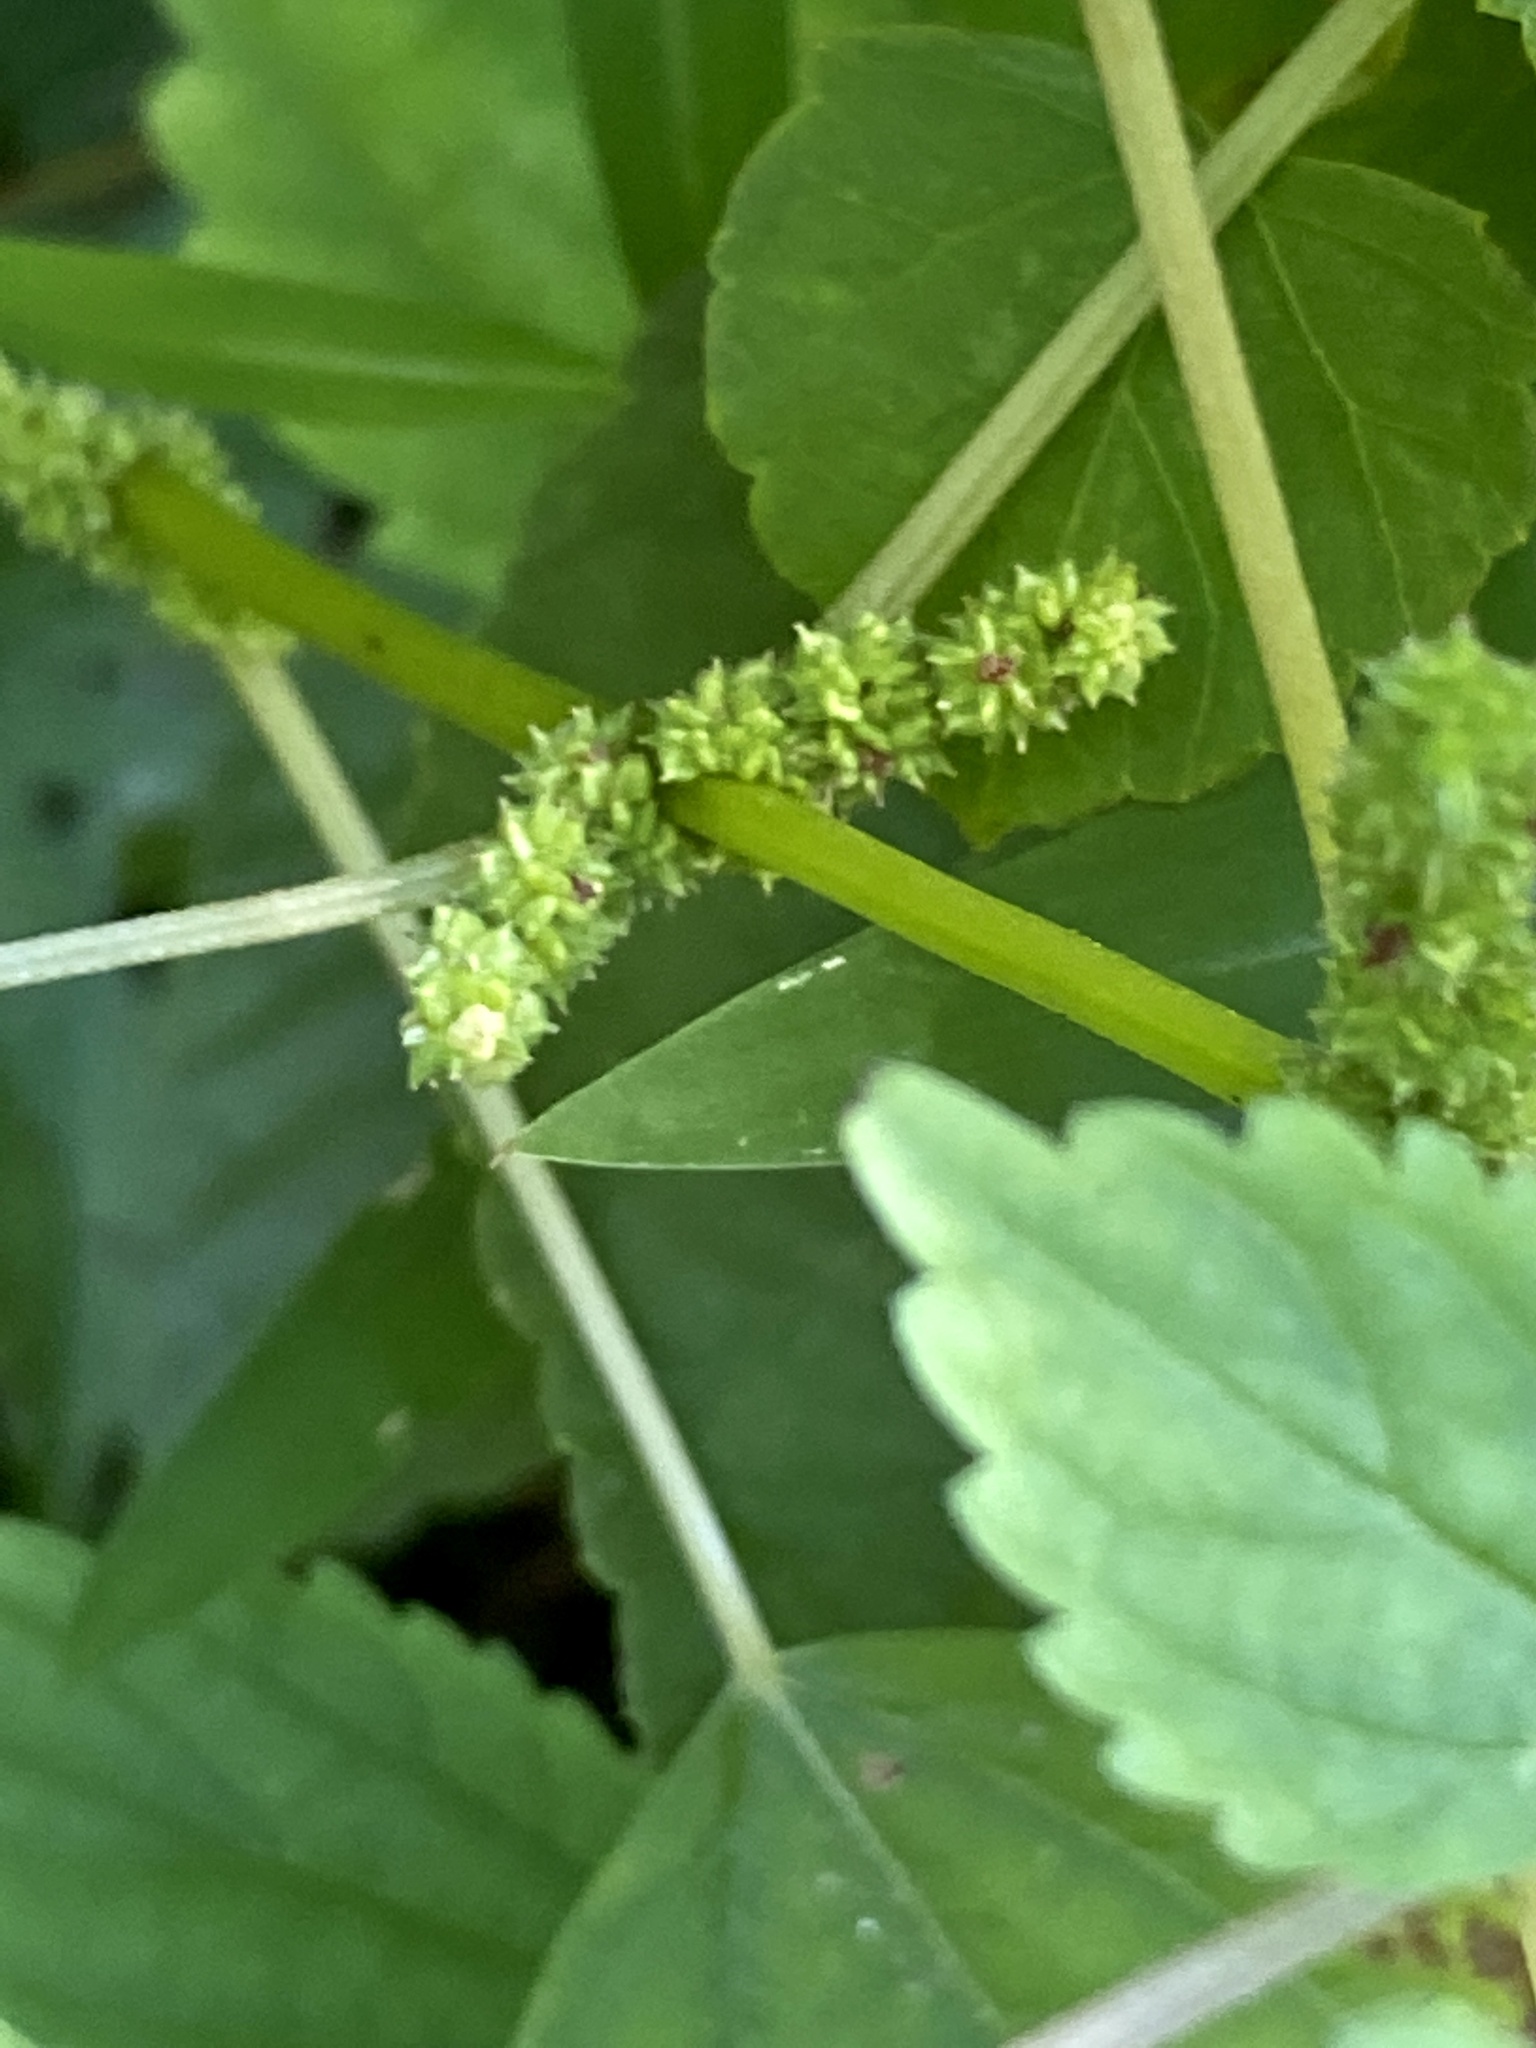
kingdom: Plantae
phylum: Tracheophyta
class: Magnoliopsida
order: Rosales
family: Urticaceae
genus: Boehmeria
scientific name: Boehmeria cylindrica
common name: Bog-hemp
